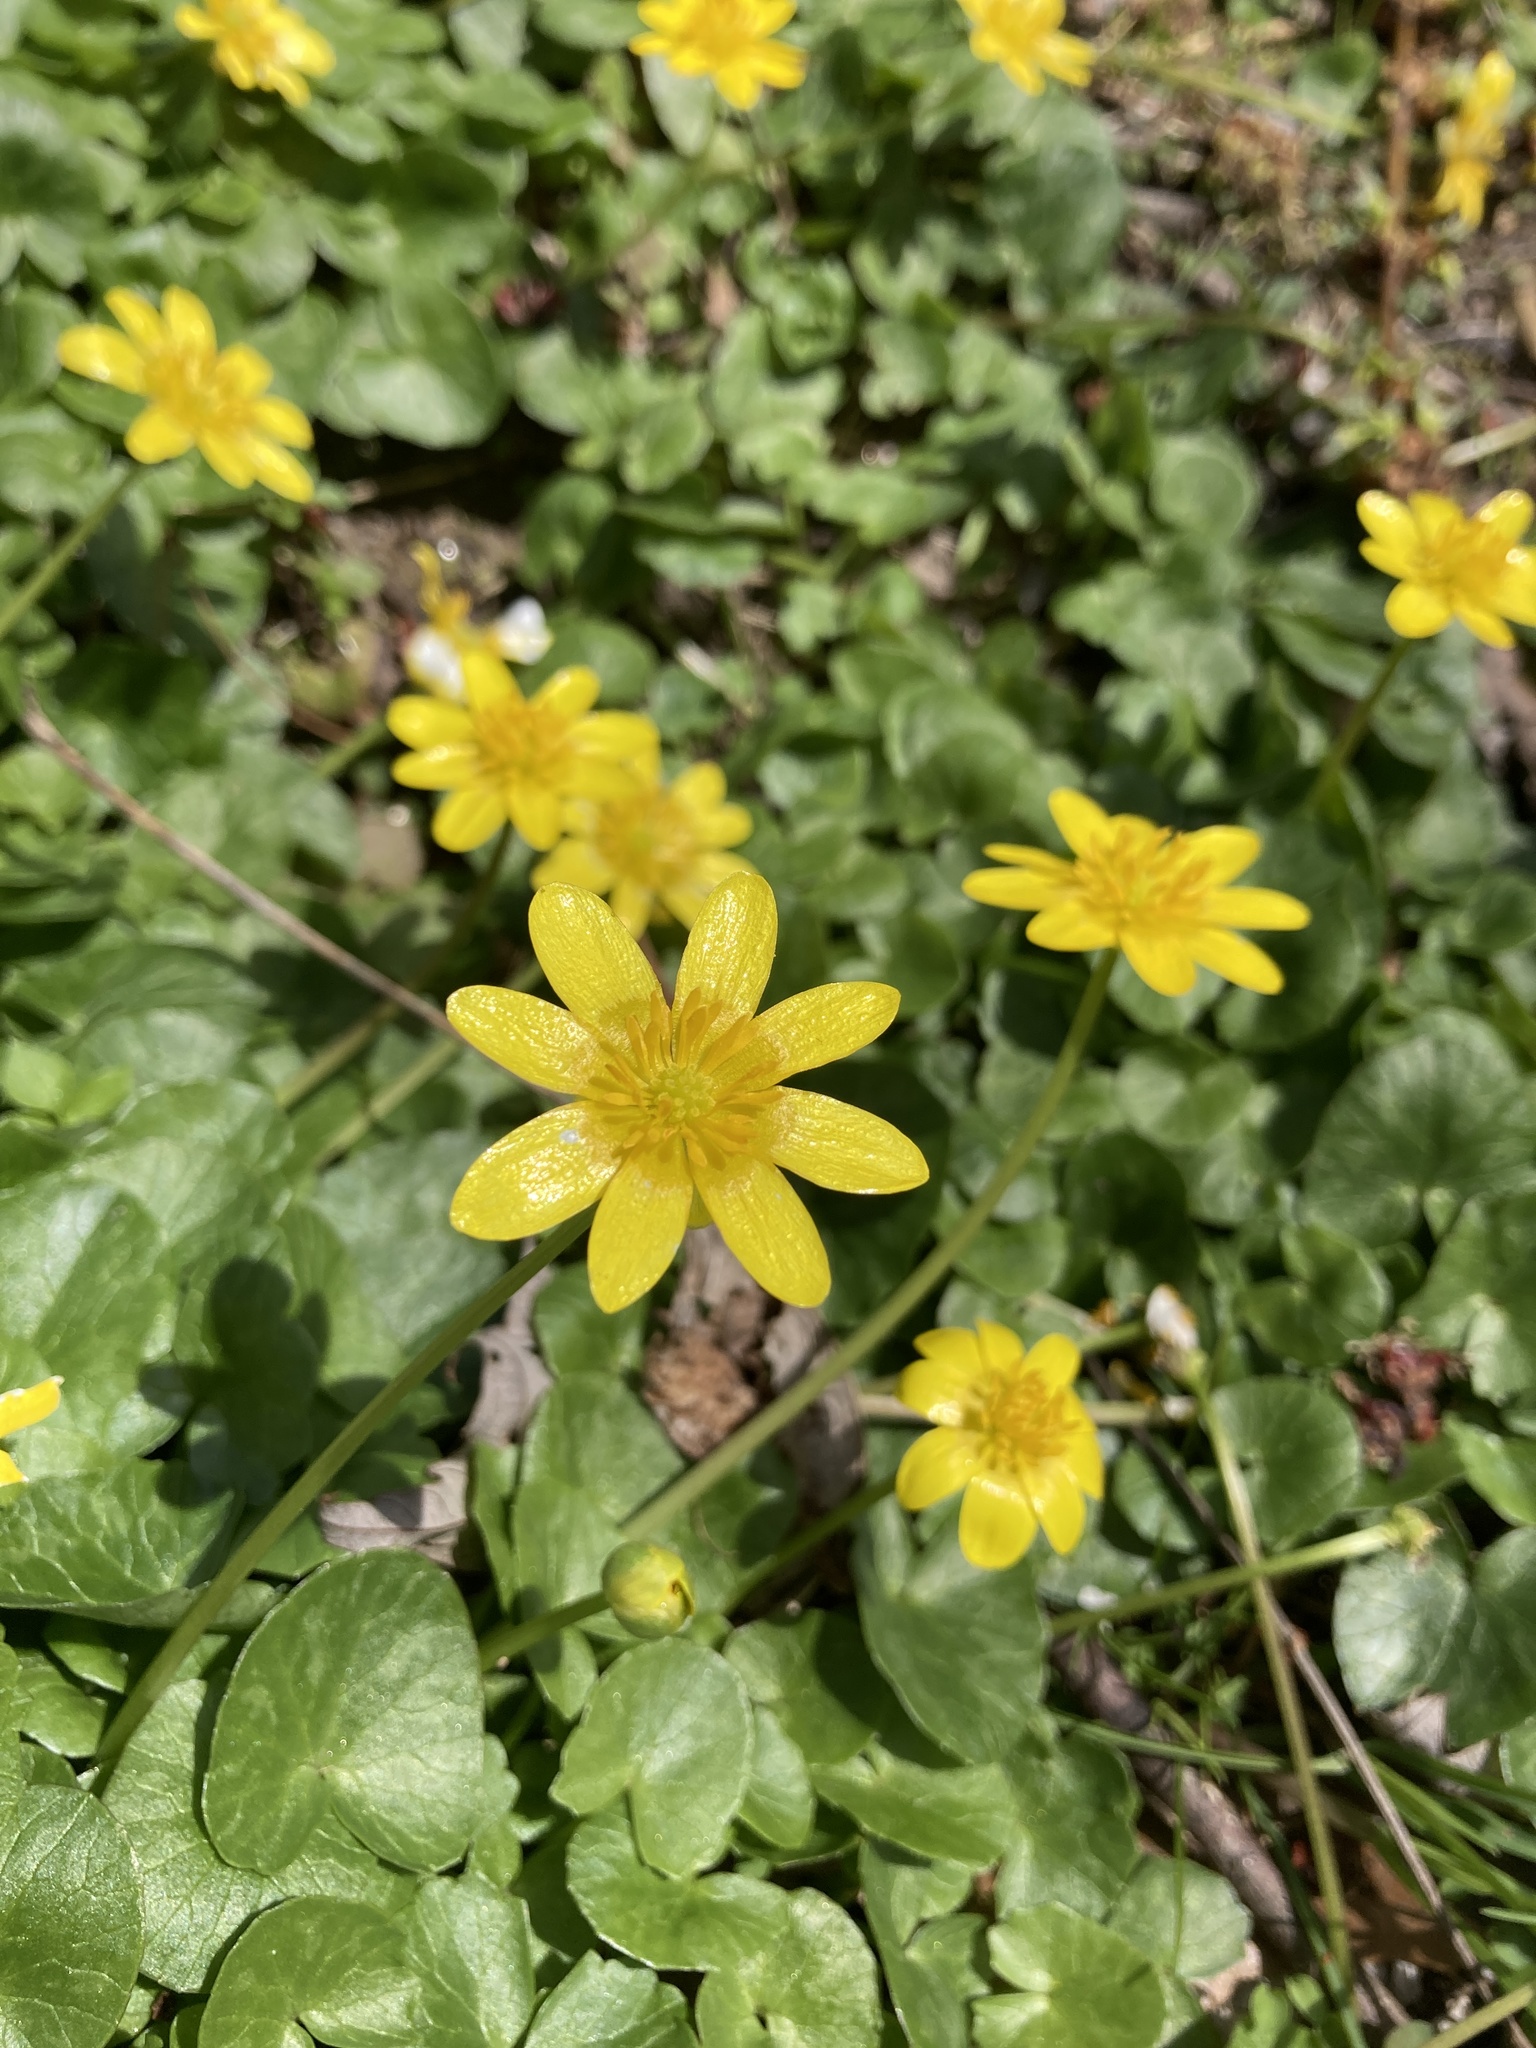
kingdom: Plantae
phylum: Tracheophyta
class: Magnoliopsida
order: Ranunculales
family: Ranunculaceae
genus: Ficaria
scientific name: Ficaria verna
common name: Lesser celandine
